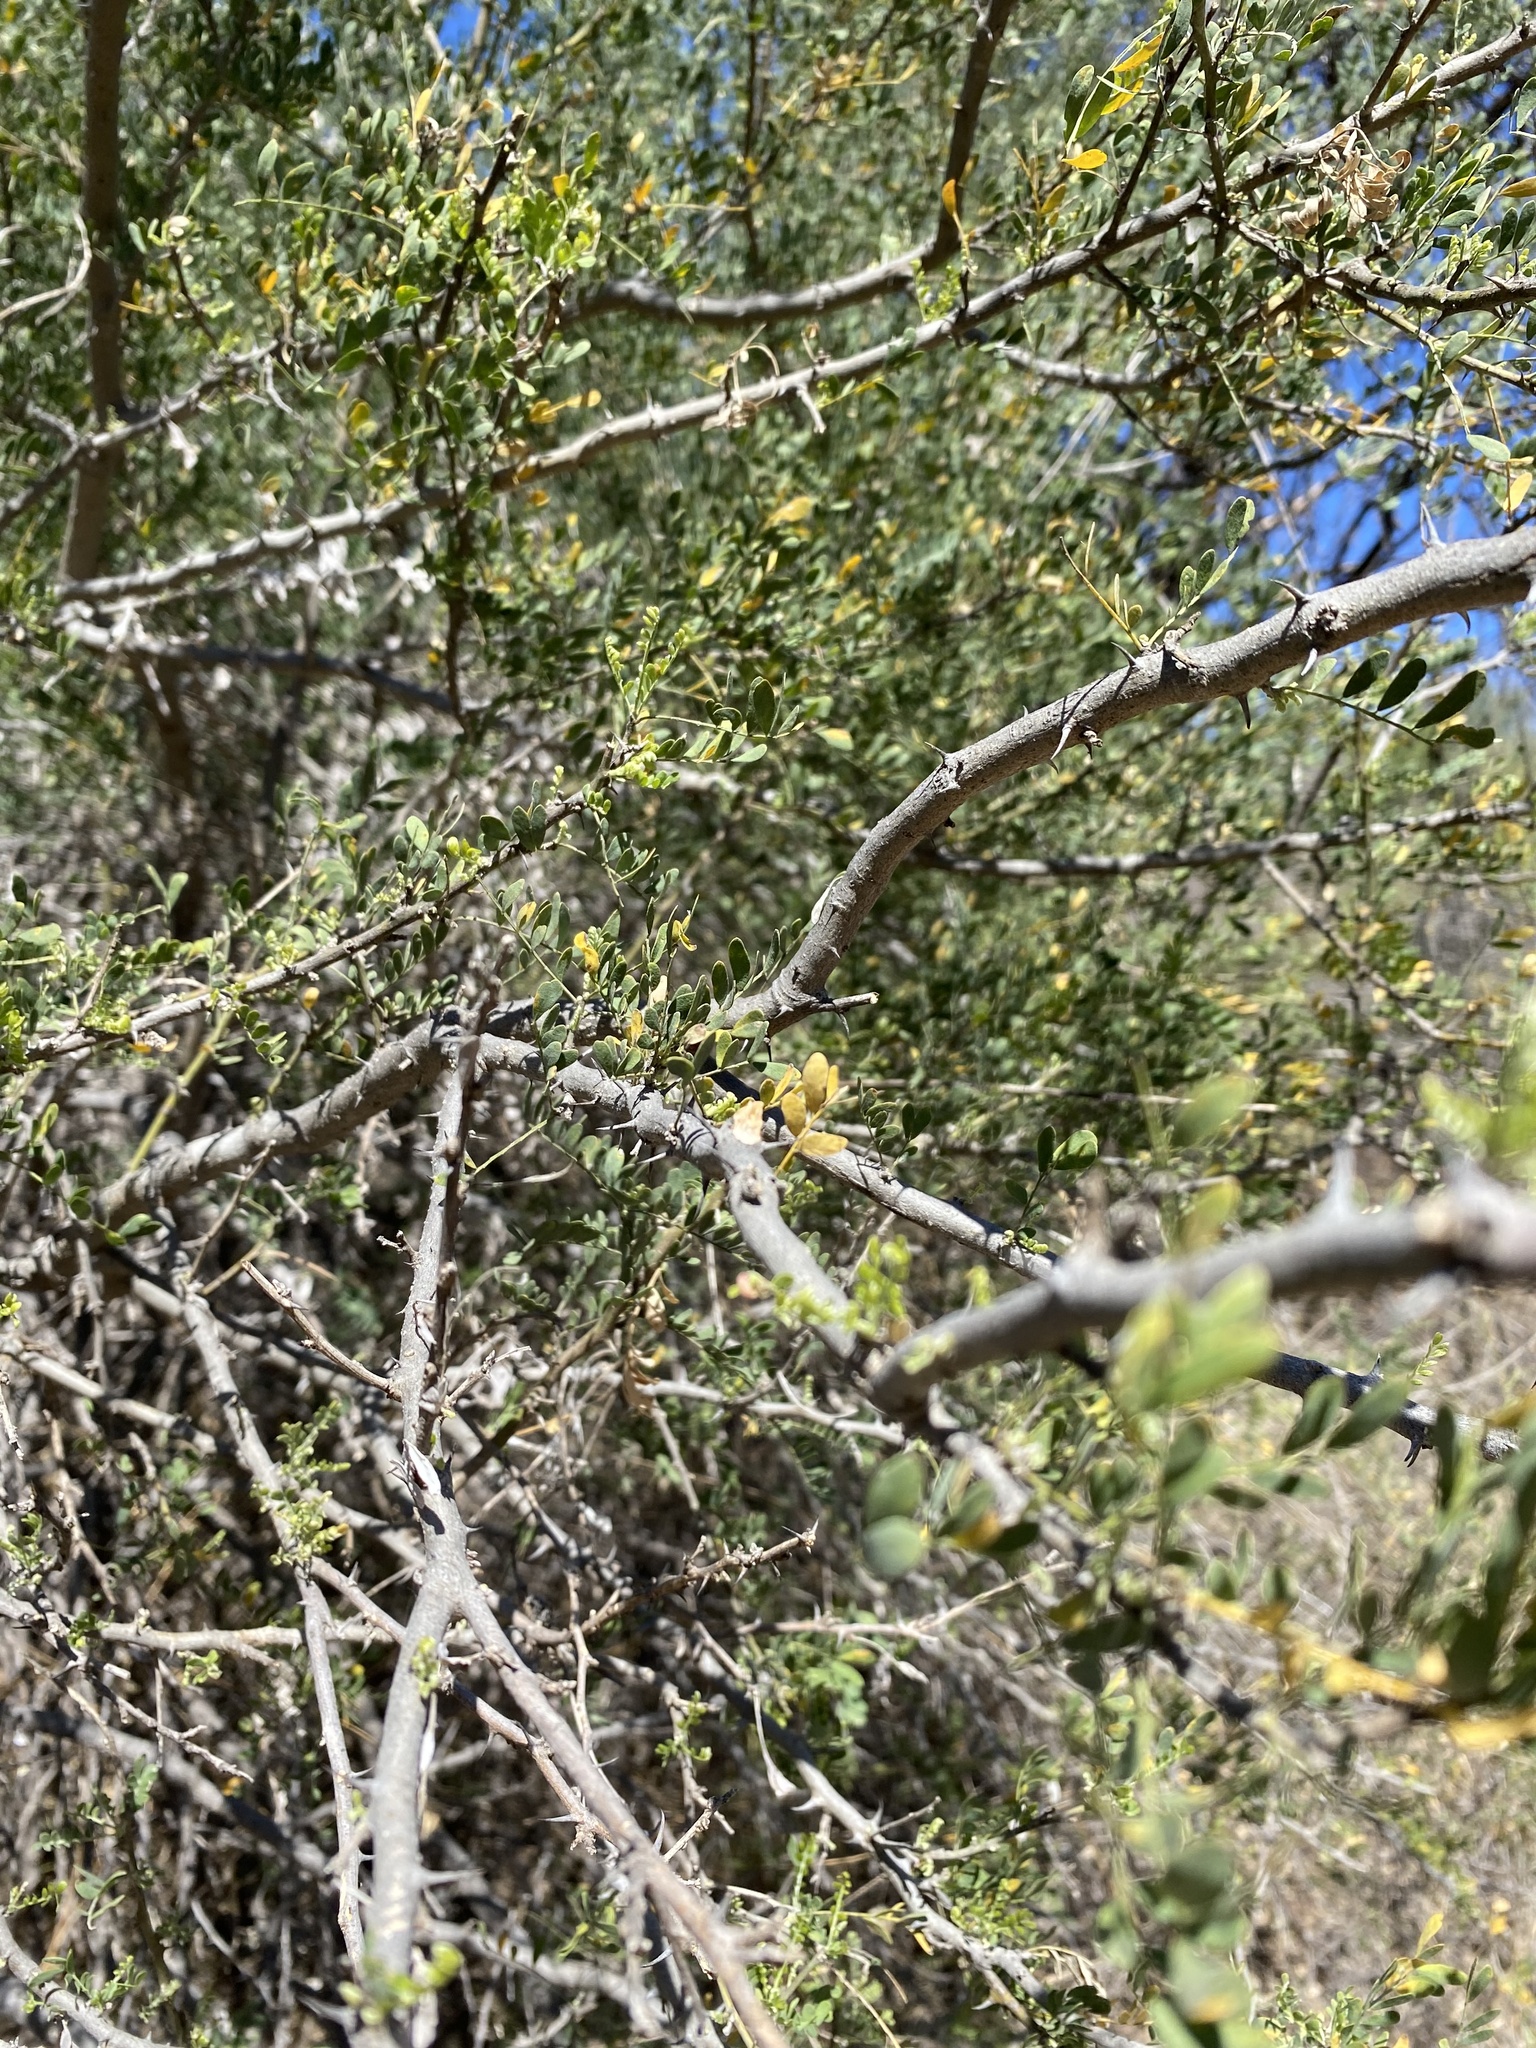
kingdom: Plantae
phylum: Tracheophyta
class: Magnoliopsida
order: Fabales
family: Fabaceae
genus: Olneya
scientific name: Olneya tesota
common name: Desert ironwood
